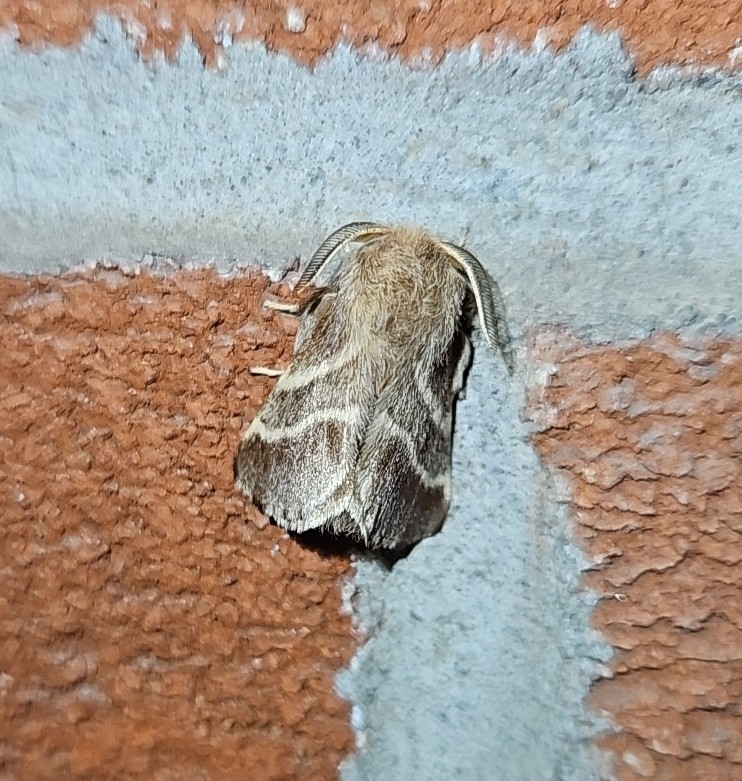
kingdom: Animalia
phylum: Arthropoda
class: Insecta
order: Lepidoptera
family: Lasiocampidae
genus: Malacosoma
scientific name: Malacosoma americana
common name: Eastern tent caterpillar moth
